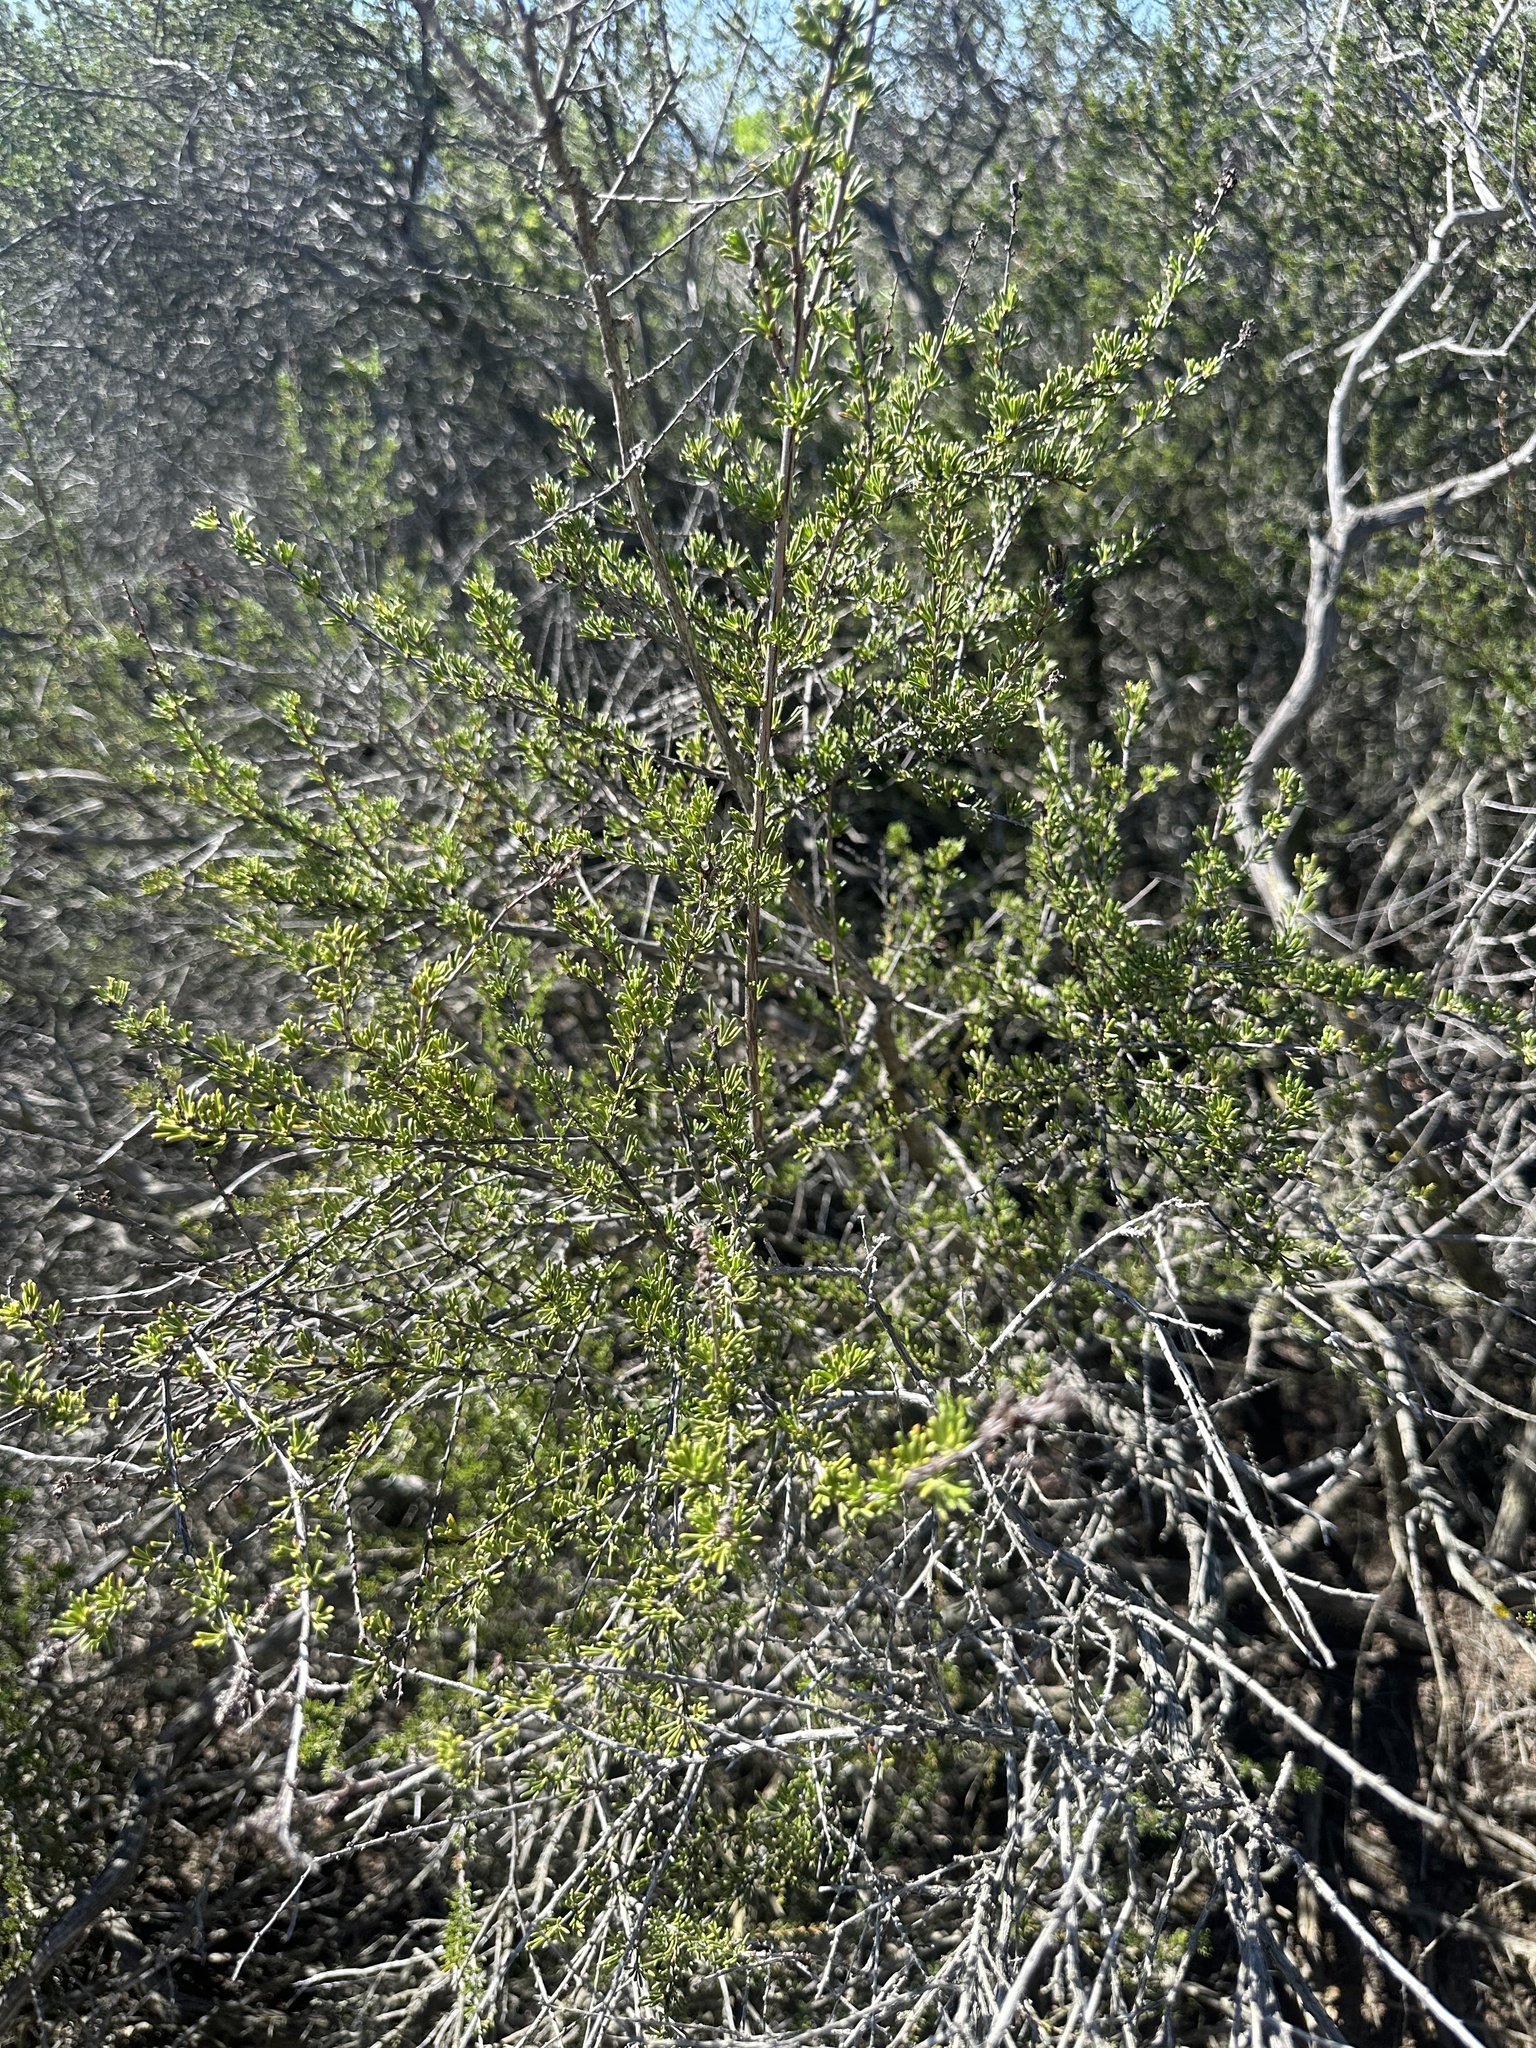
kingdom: Plantae
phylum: Tracheophyta
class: Magnoliopsida
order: Rosales
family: Rosaceae
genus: Adenostoma
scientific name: Adenostoma fasciculatum
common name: Chamise
